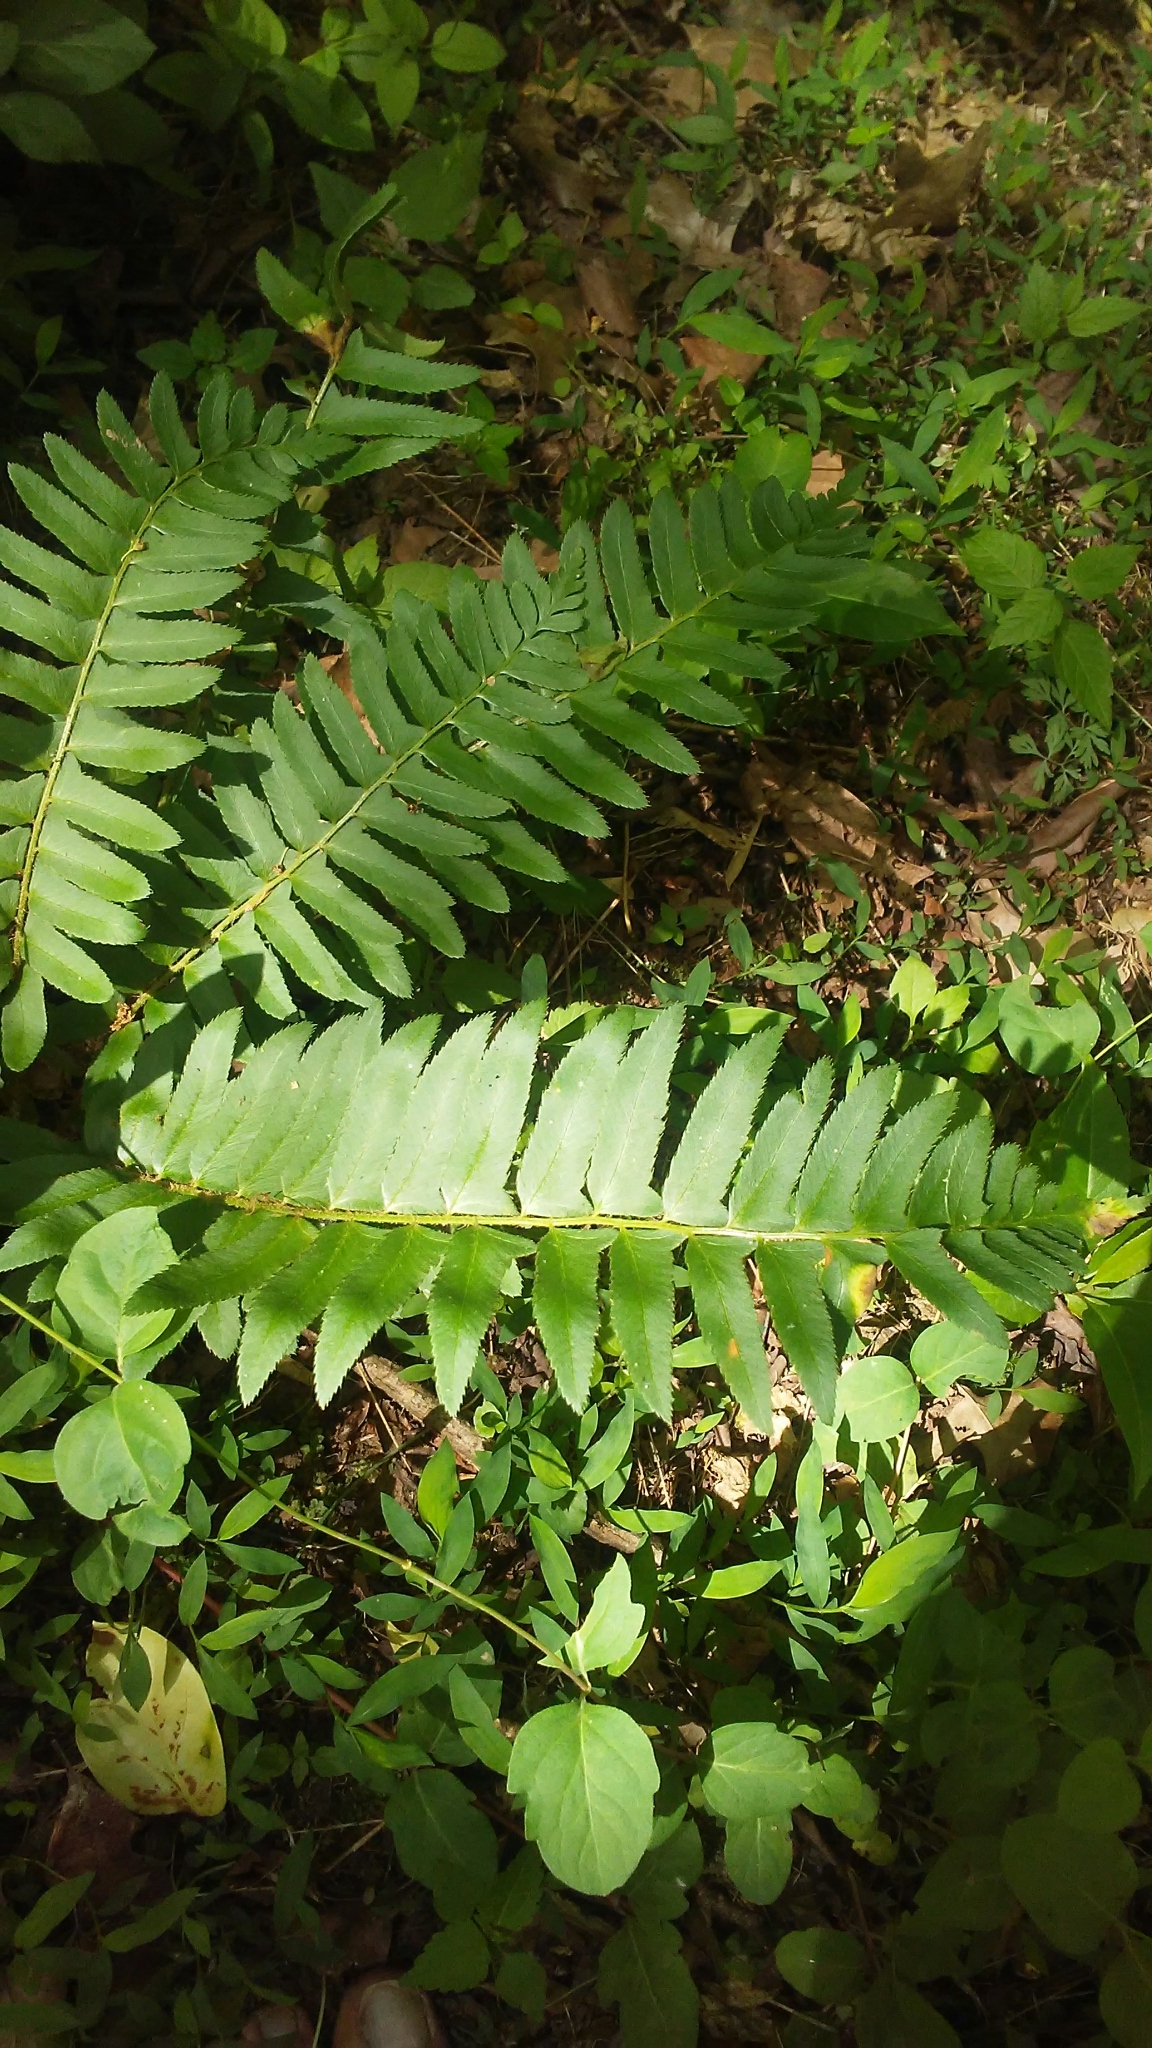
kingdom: Plantae
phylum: Tracheophyta
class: Polypodiopsida
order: Polypodiales
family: Dryopteridaceae
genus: Polystichum
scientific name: Polystichum acrostichoides
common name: Christmas fern
